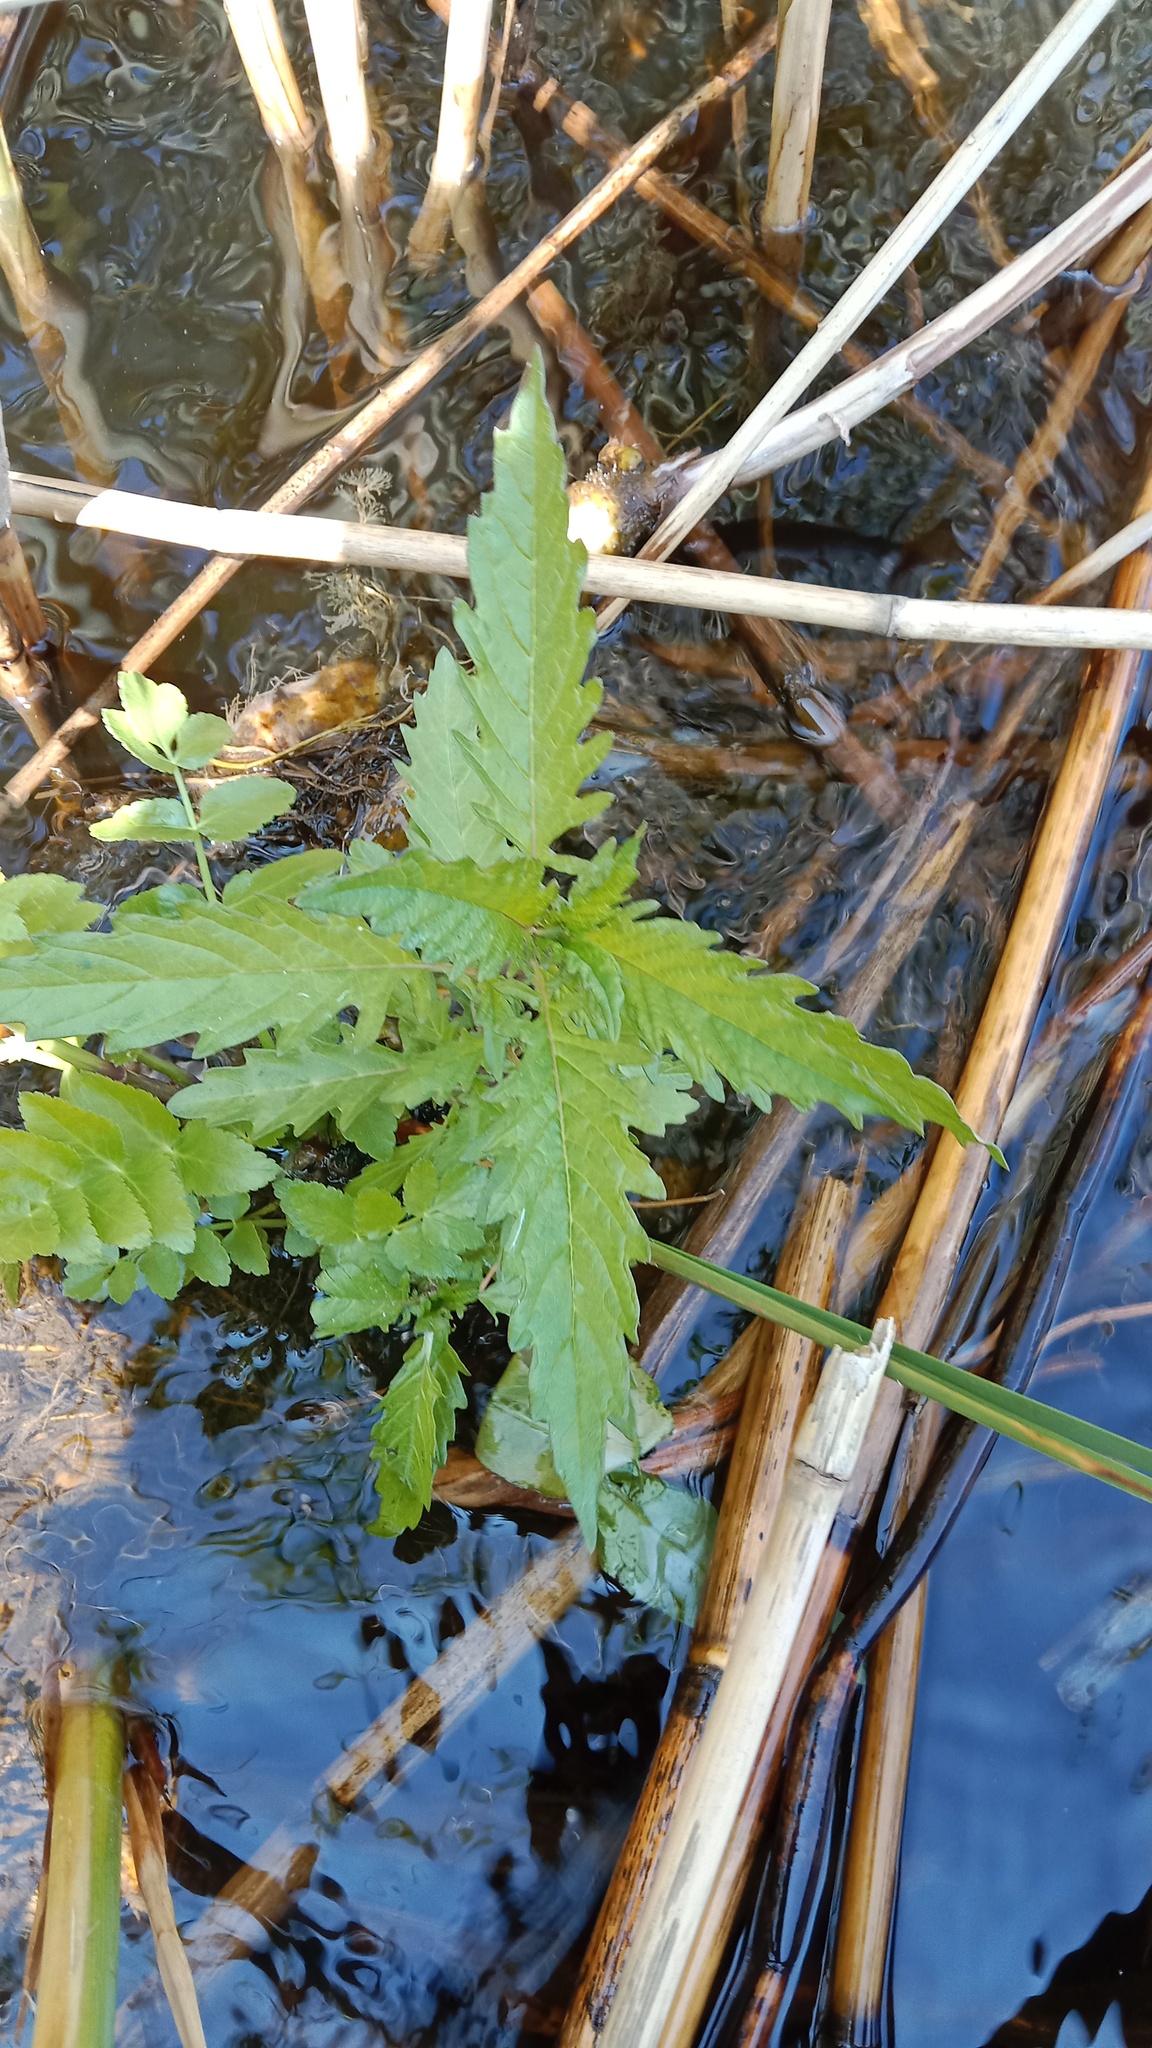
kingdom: Plantae
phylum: Tracheophyta
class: Magnoliopsida
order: Lamiales
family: Lamiaceae
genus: Lycopus
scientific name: Lycopus europaeus
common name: European bugleweed
